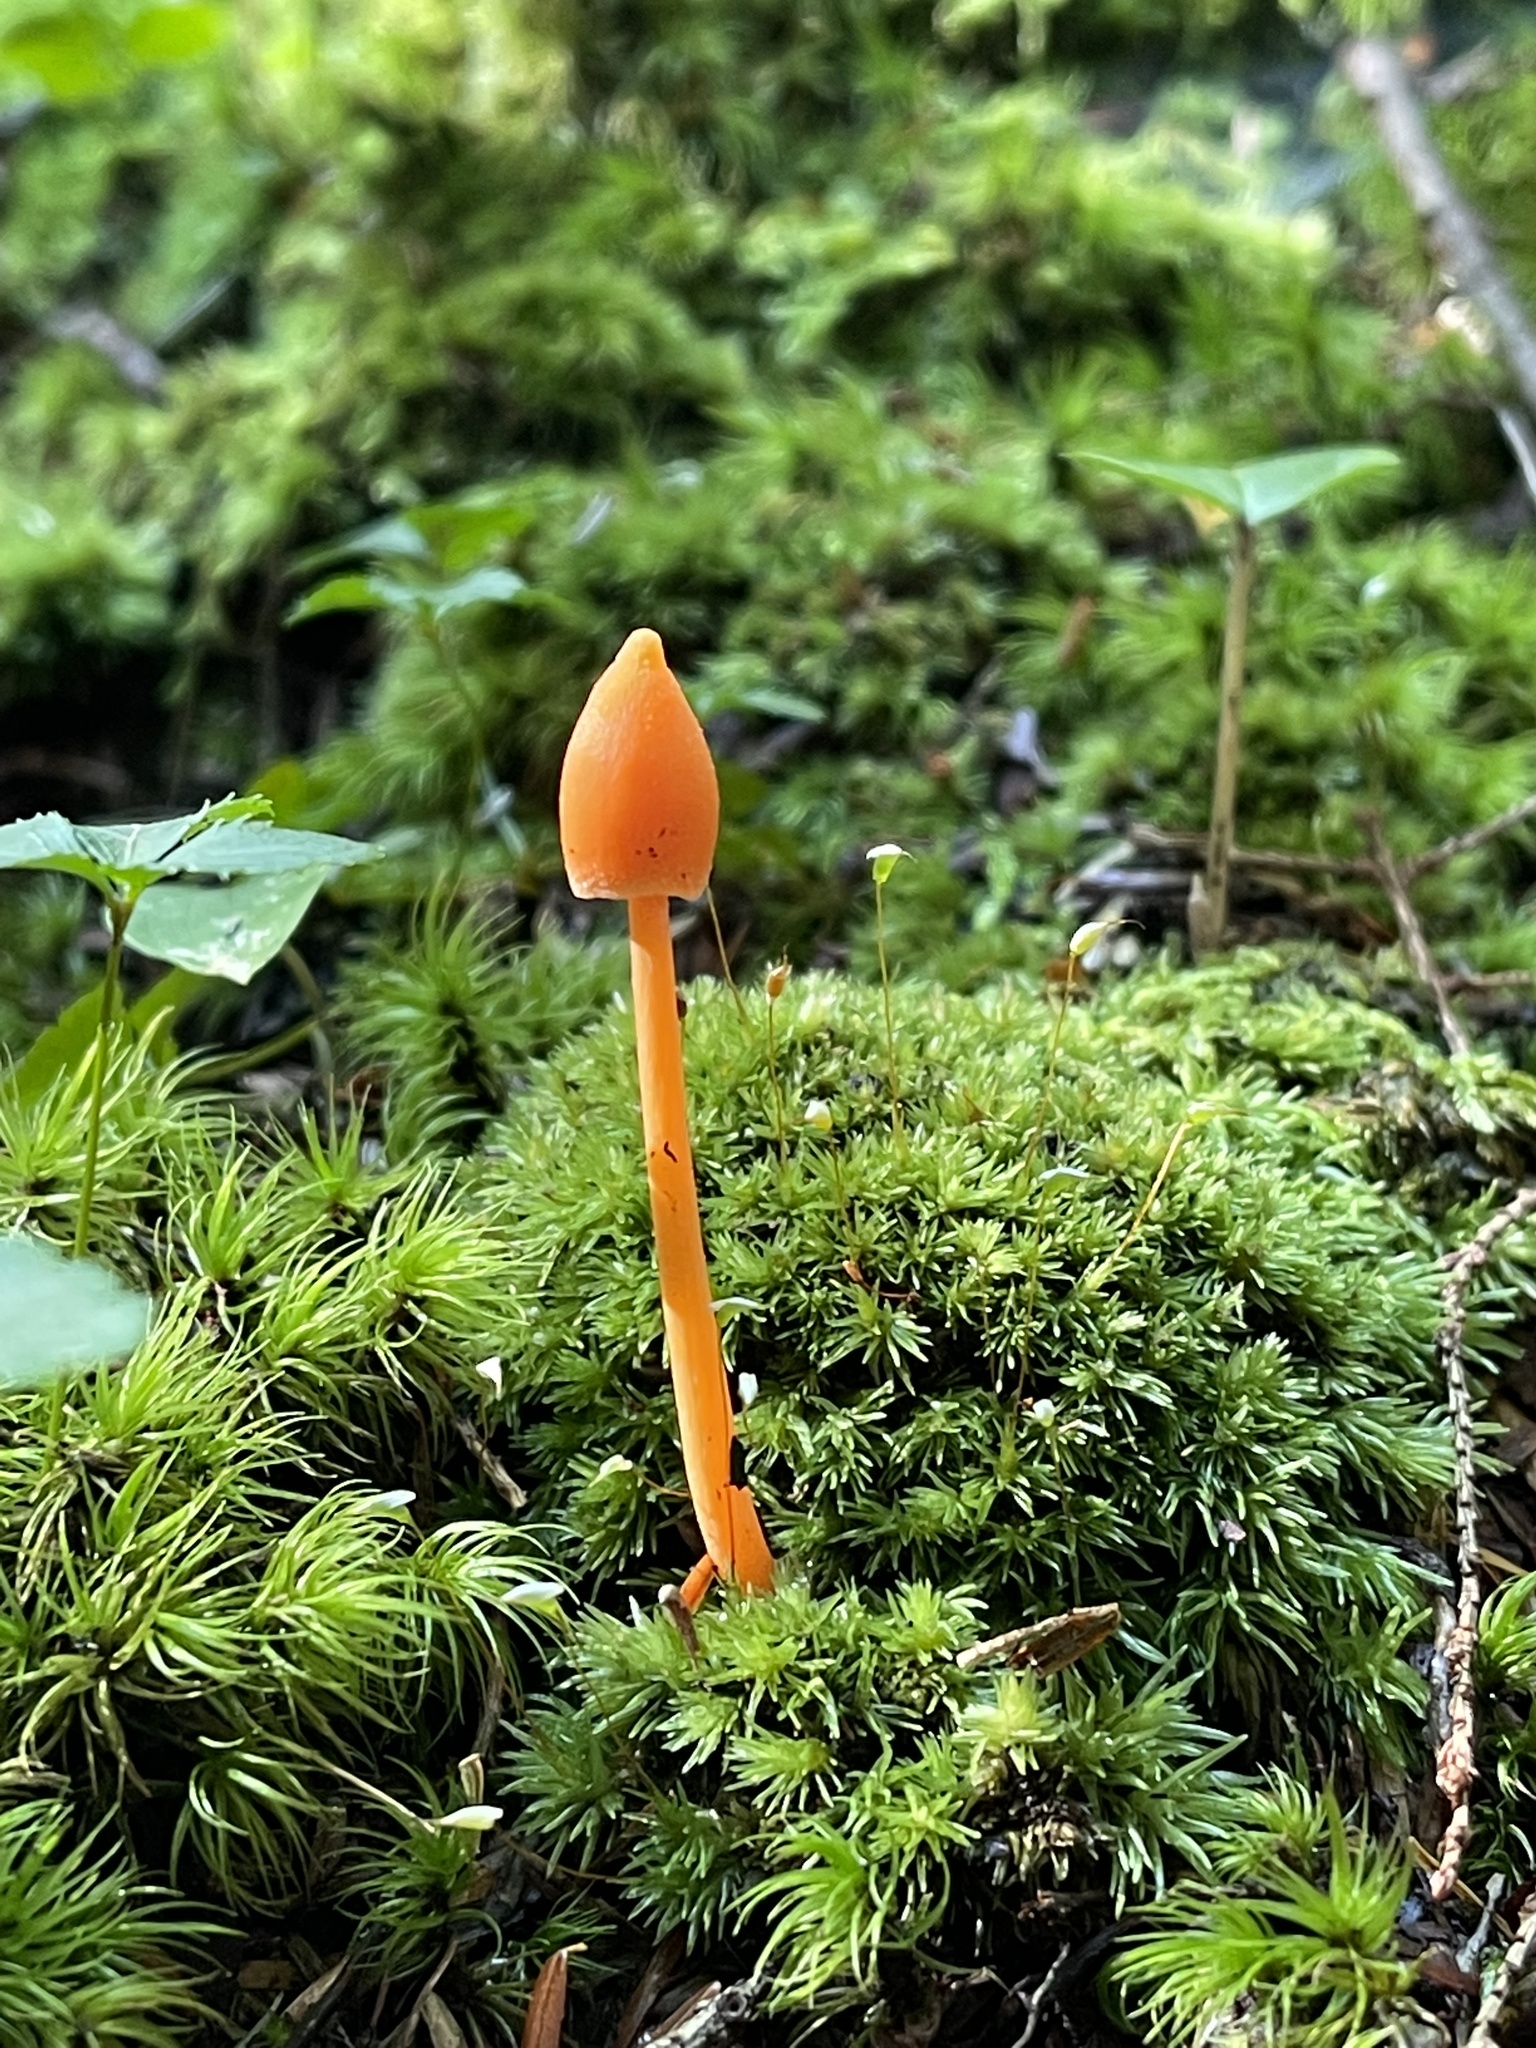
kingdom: Fungi
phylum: Basidiomycota
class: Agaricomycetes
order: Agaricales
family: Entolomataceae
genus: Entoloma
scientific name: Entoloma quadratum
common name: Salmon pinkgill
